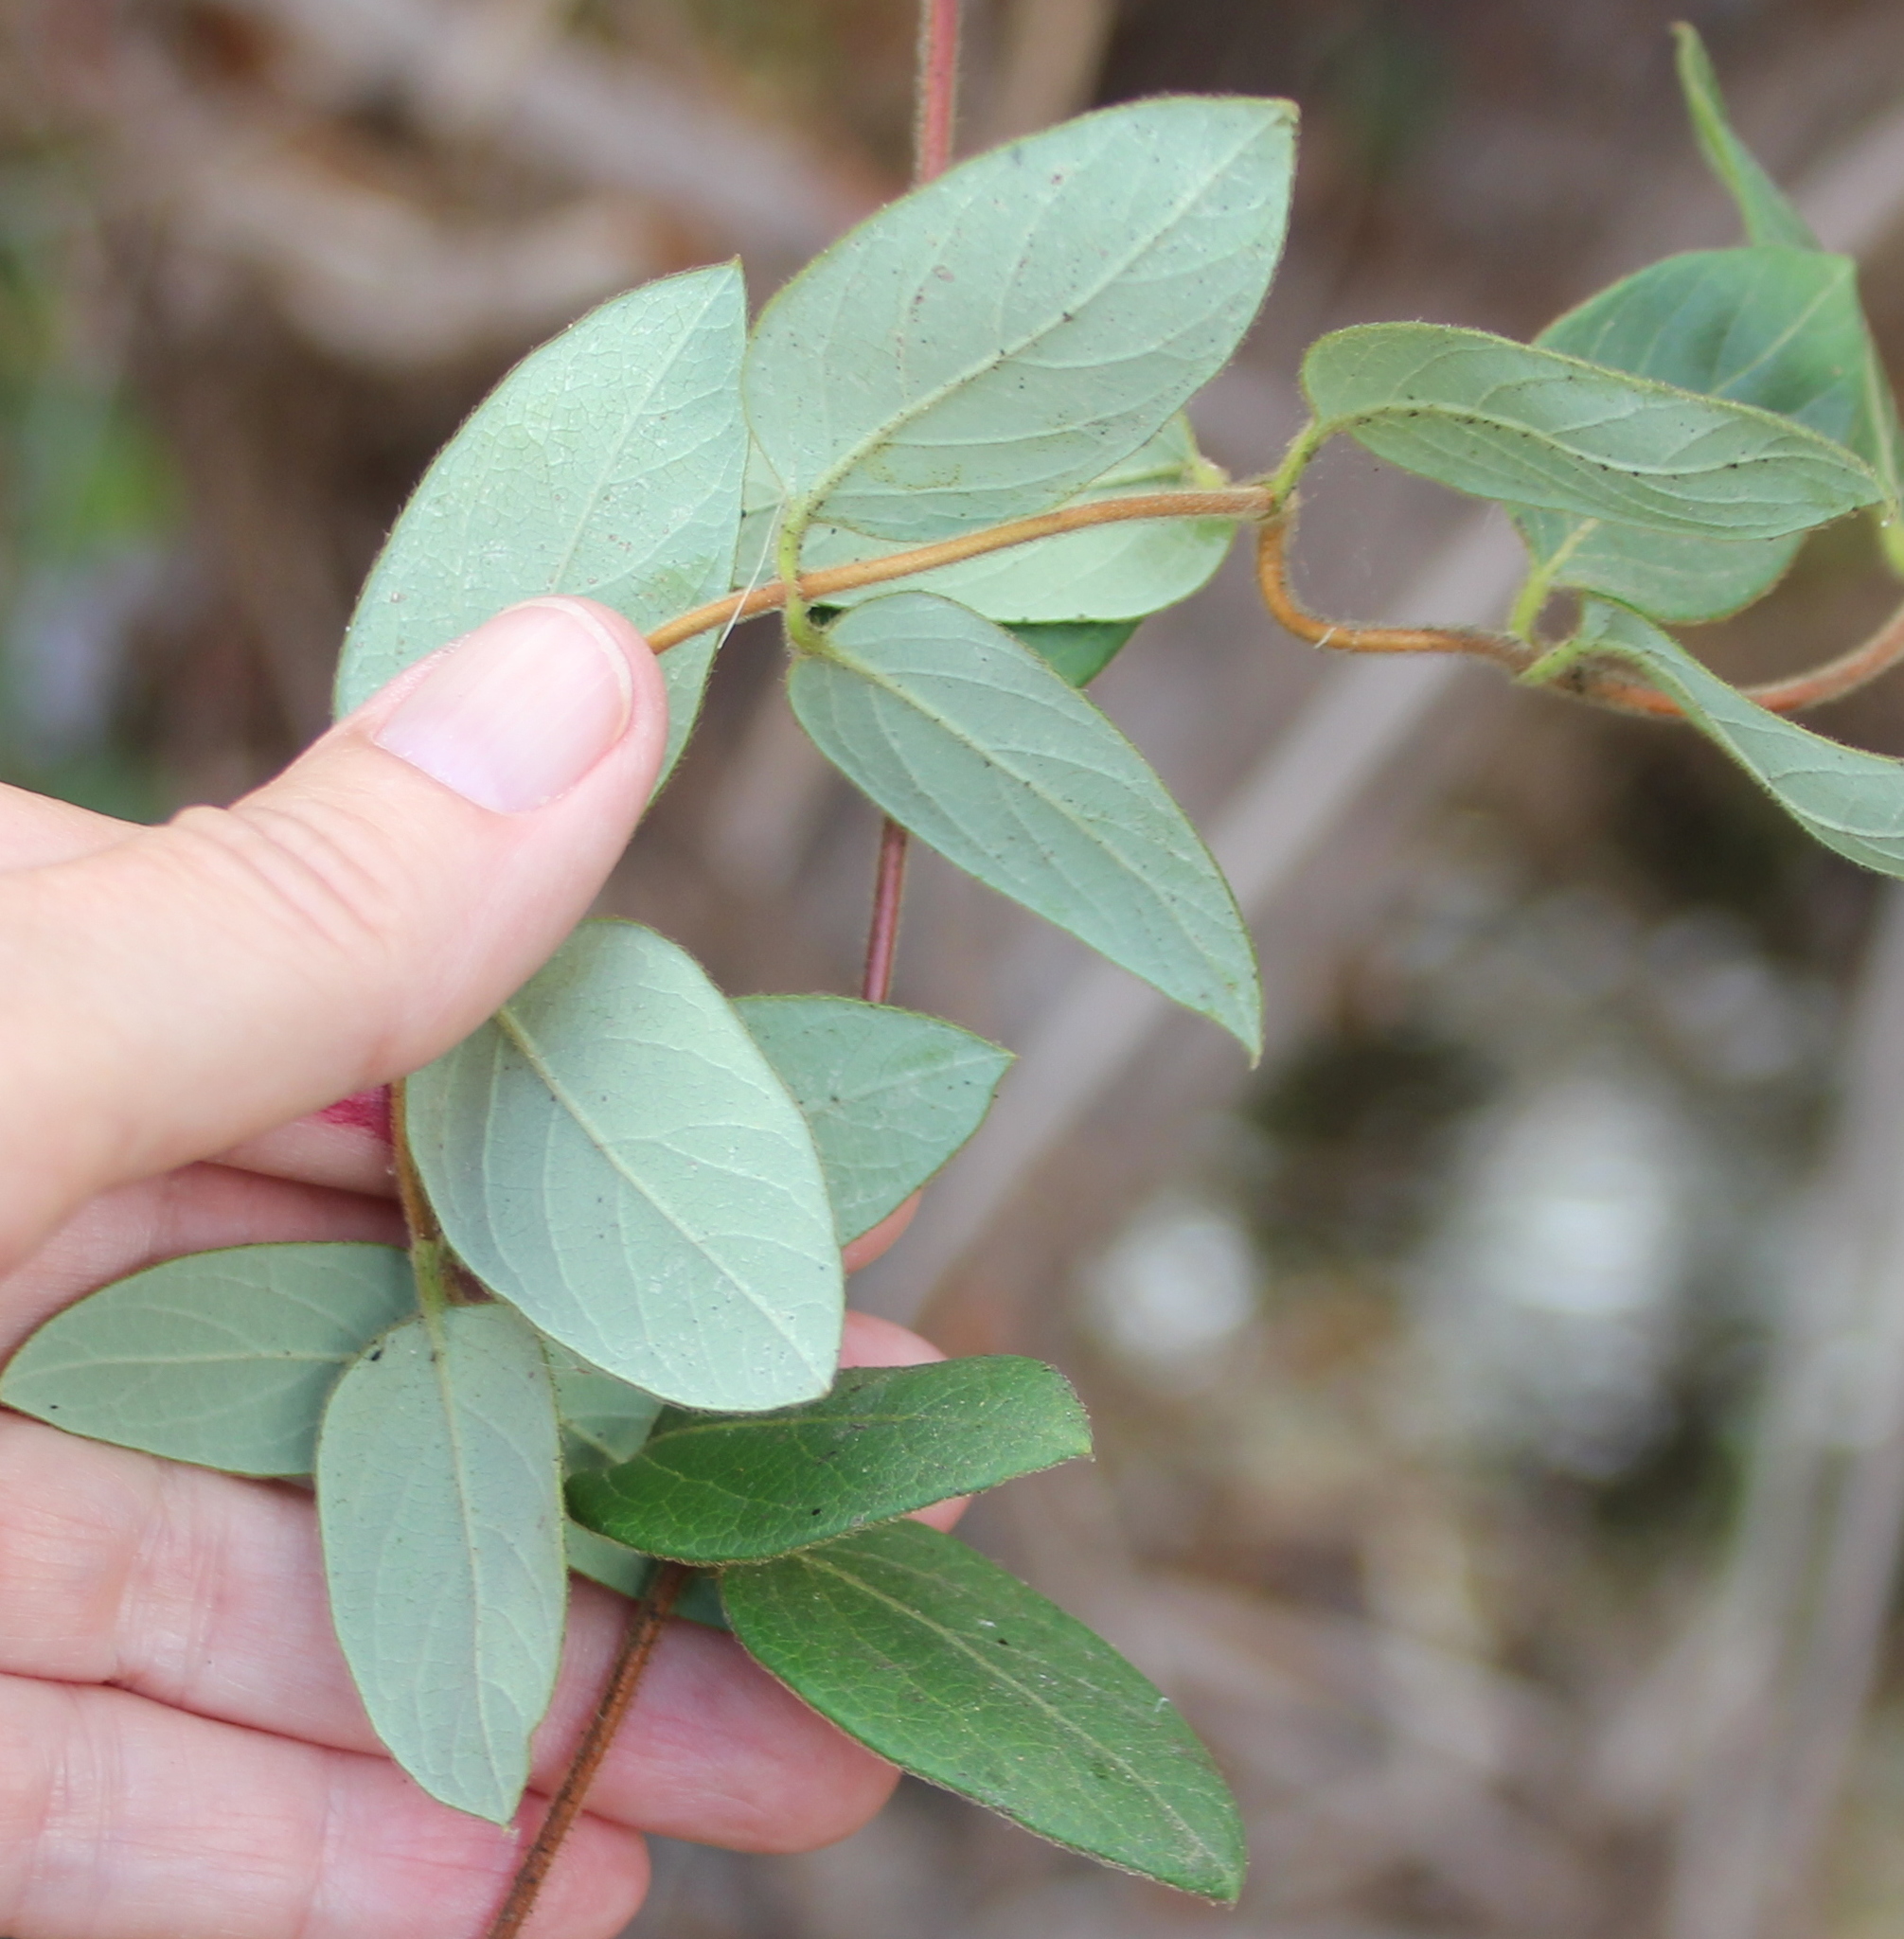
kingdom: Plantae
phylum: Tracheophyta
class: Magnoliopsida
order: Dipsacales
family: Caprifoliaceae
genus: Lonicera
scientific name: Lonicera japonica
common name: Japanese honeysuckle
